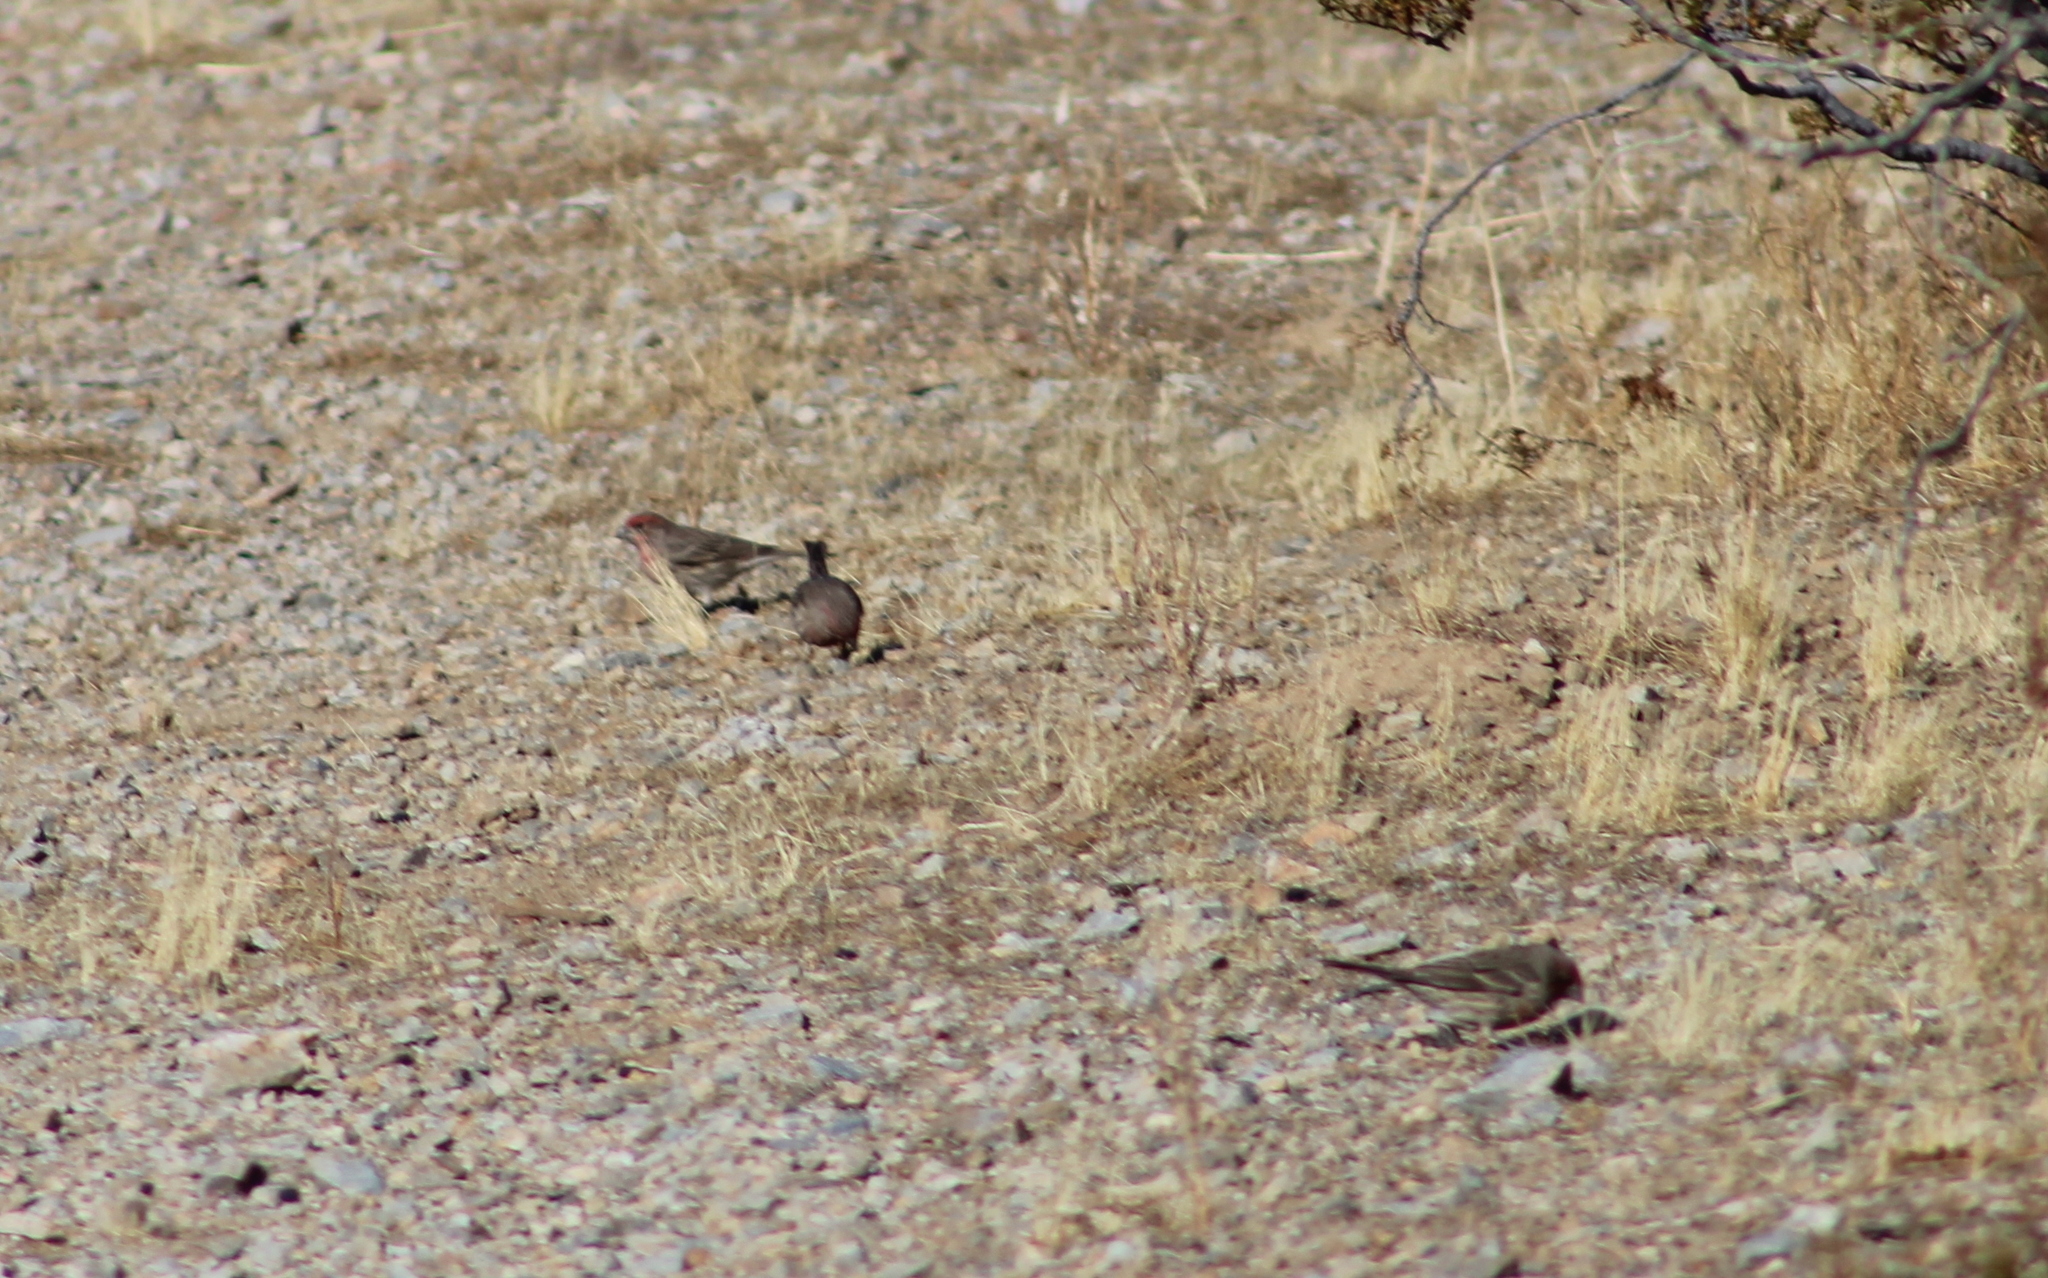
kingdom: Animalia
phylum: Chordata
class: Aves
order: Passeriformes
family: Fringillidae
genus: Haemorhous
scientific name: Haemorhous mexicanus
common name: House finch
